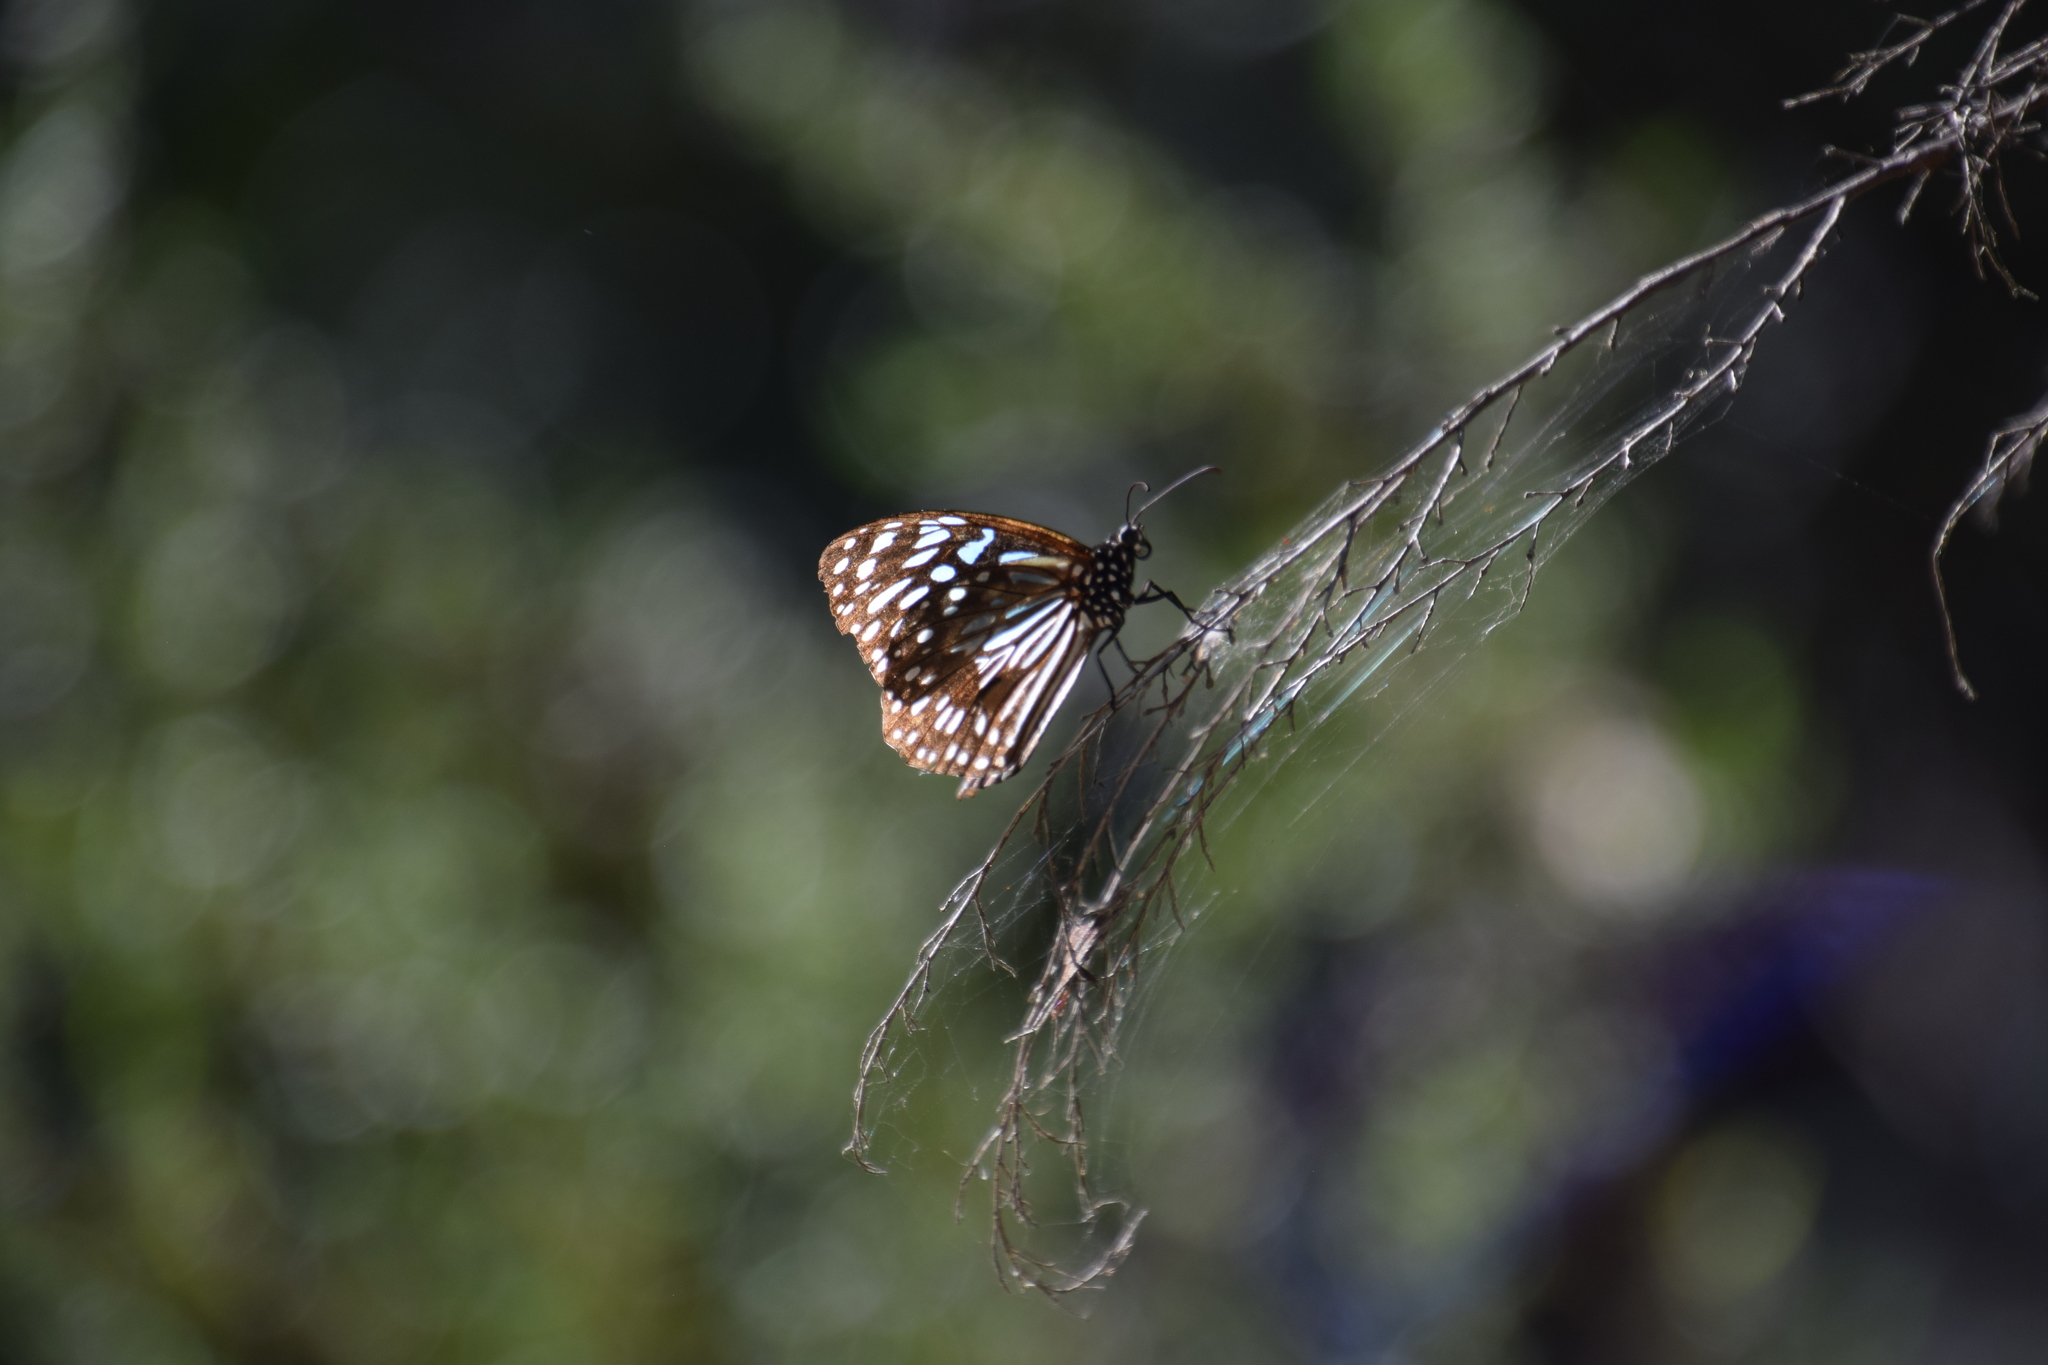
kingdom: Animalia
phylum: Arthropoda
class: Insecta
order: Lepidoptera
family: Nymphalidae
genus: Tirumala
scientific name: Tirumala hamata
